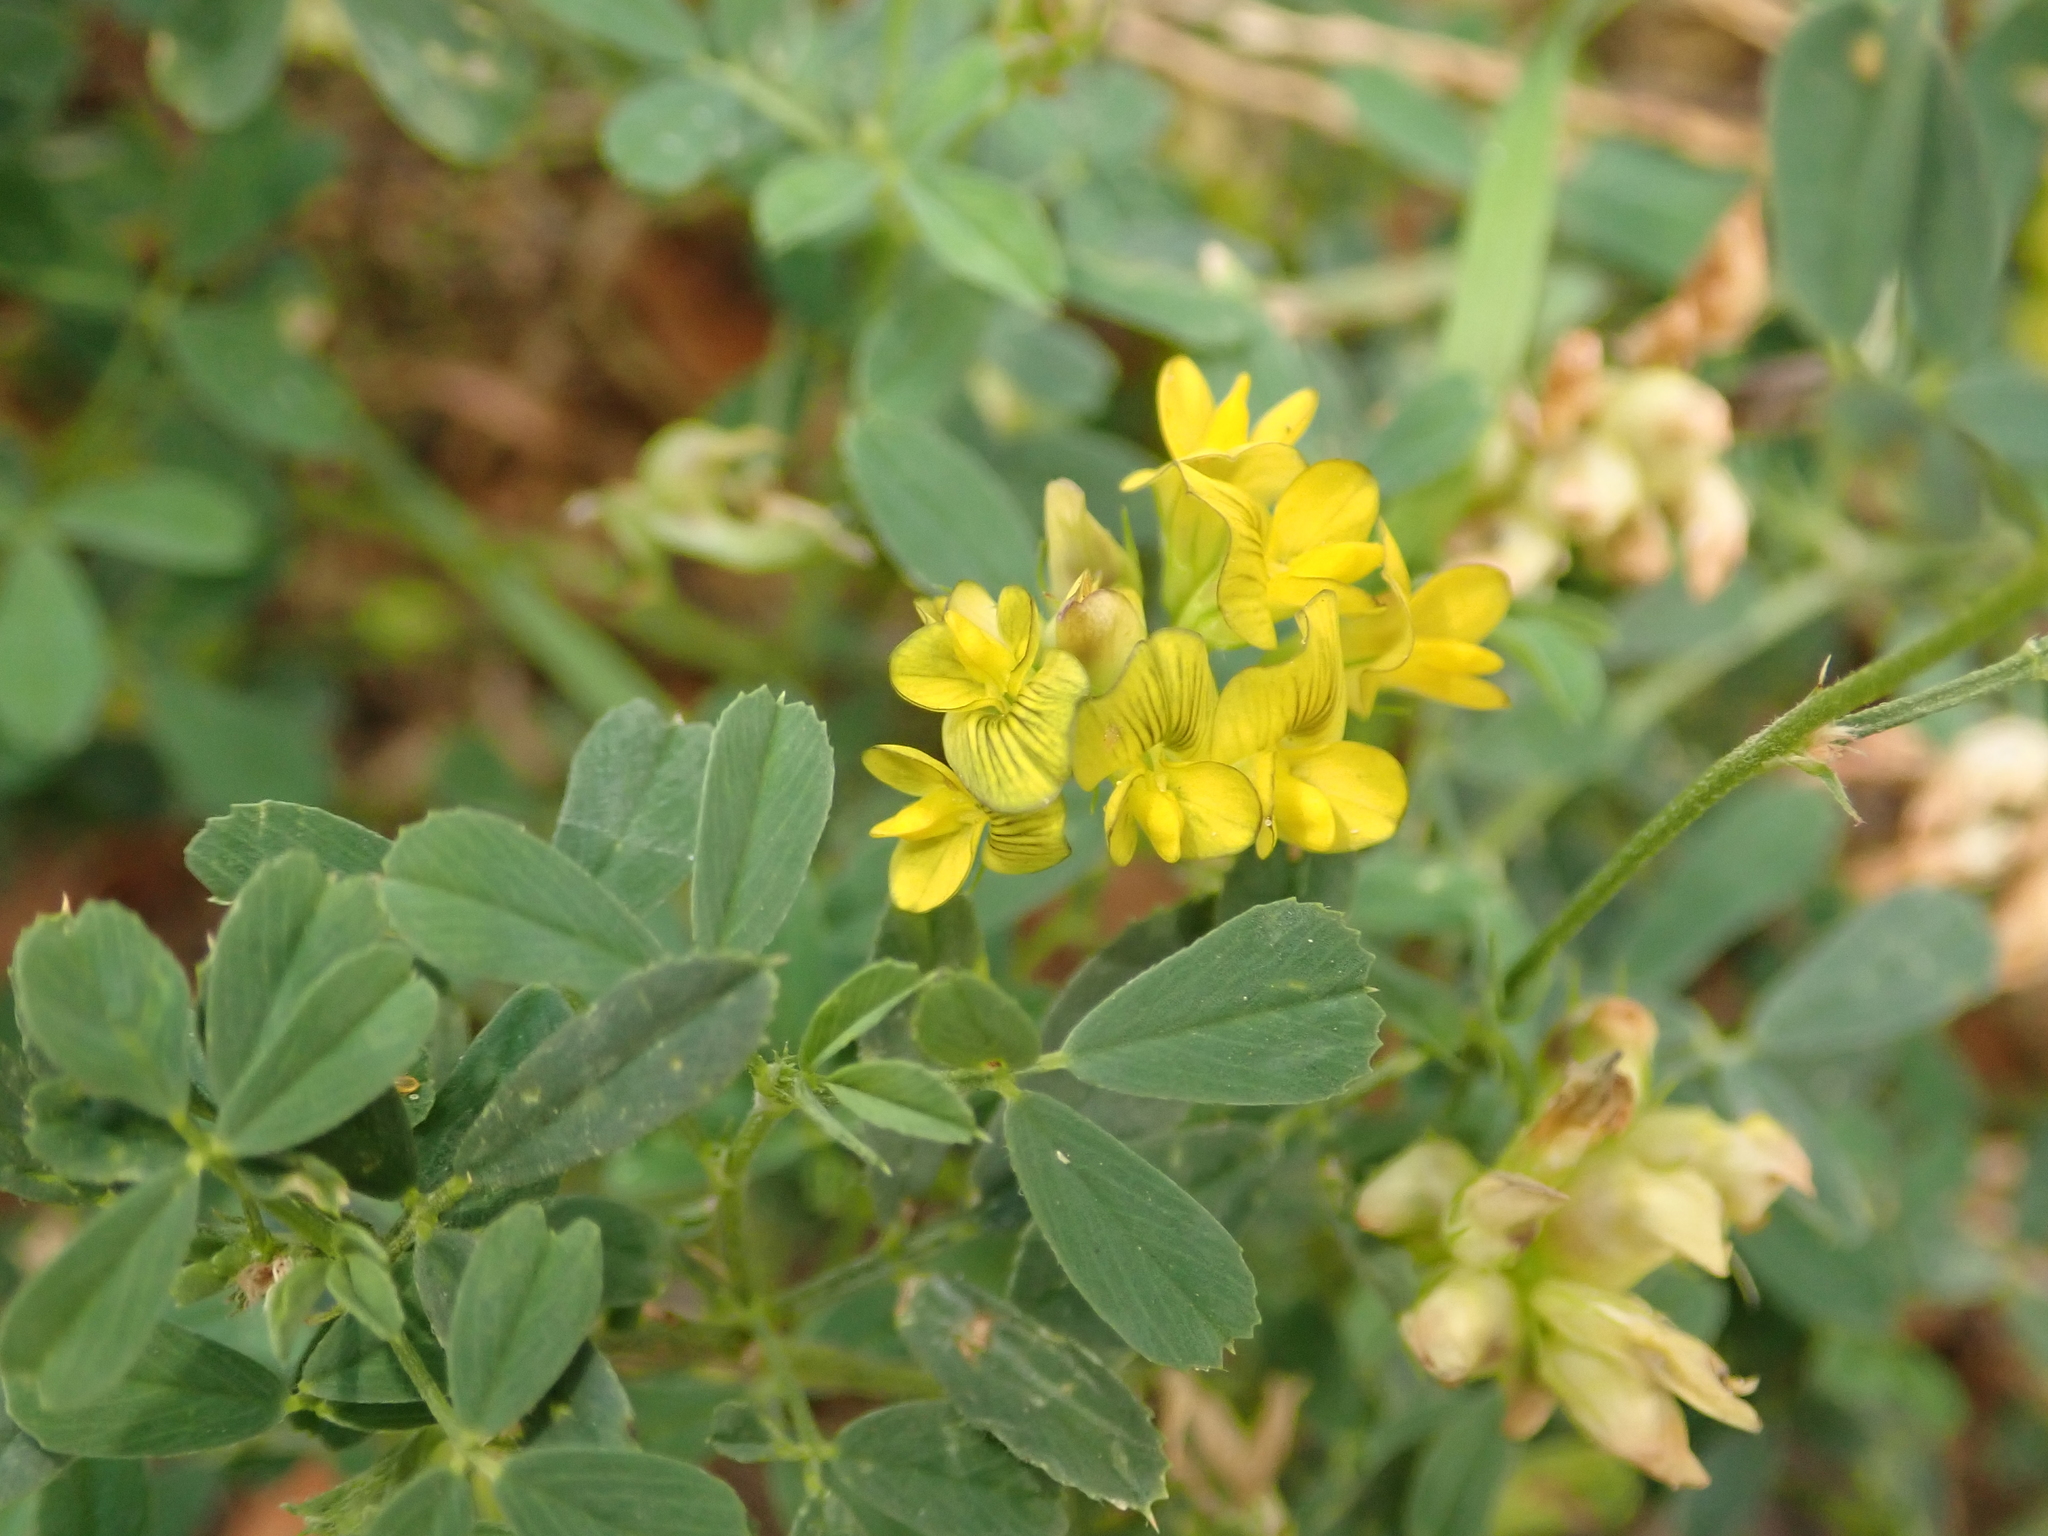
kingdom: Plantae
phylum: Tracheophyta
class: Magnoliopsida
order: Fabales
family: Fabaceae
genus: Medicago
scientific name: Medicago varia
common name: Sand lucerne
